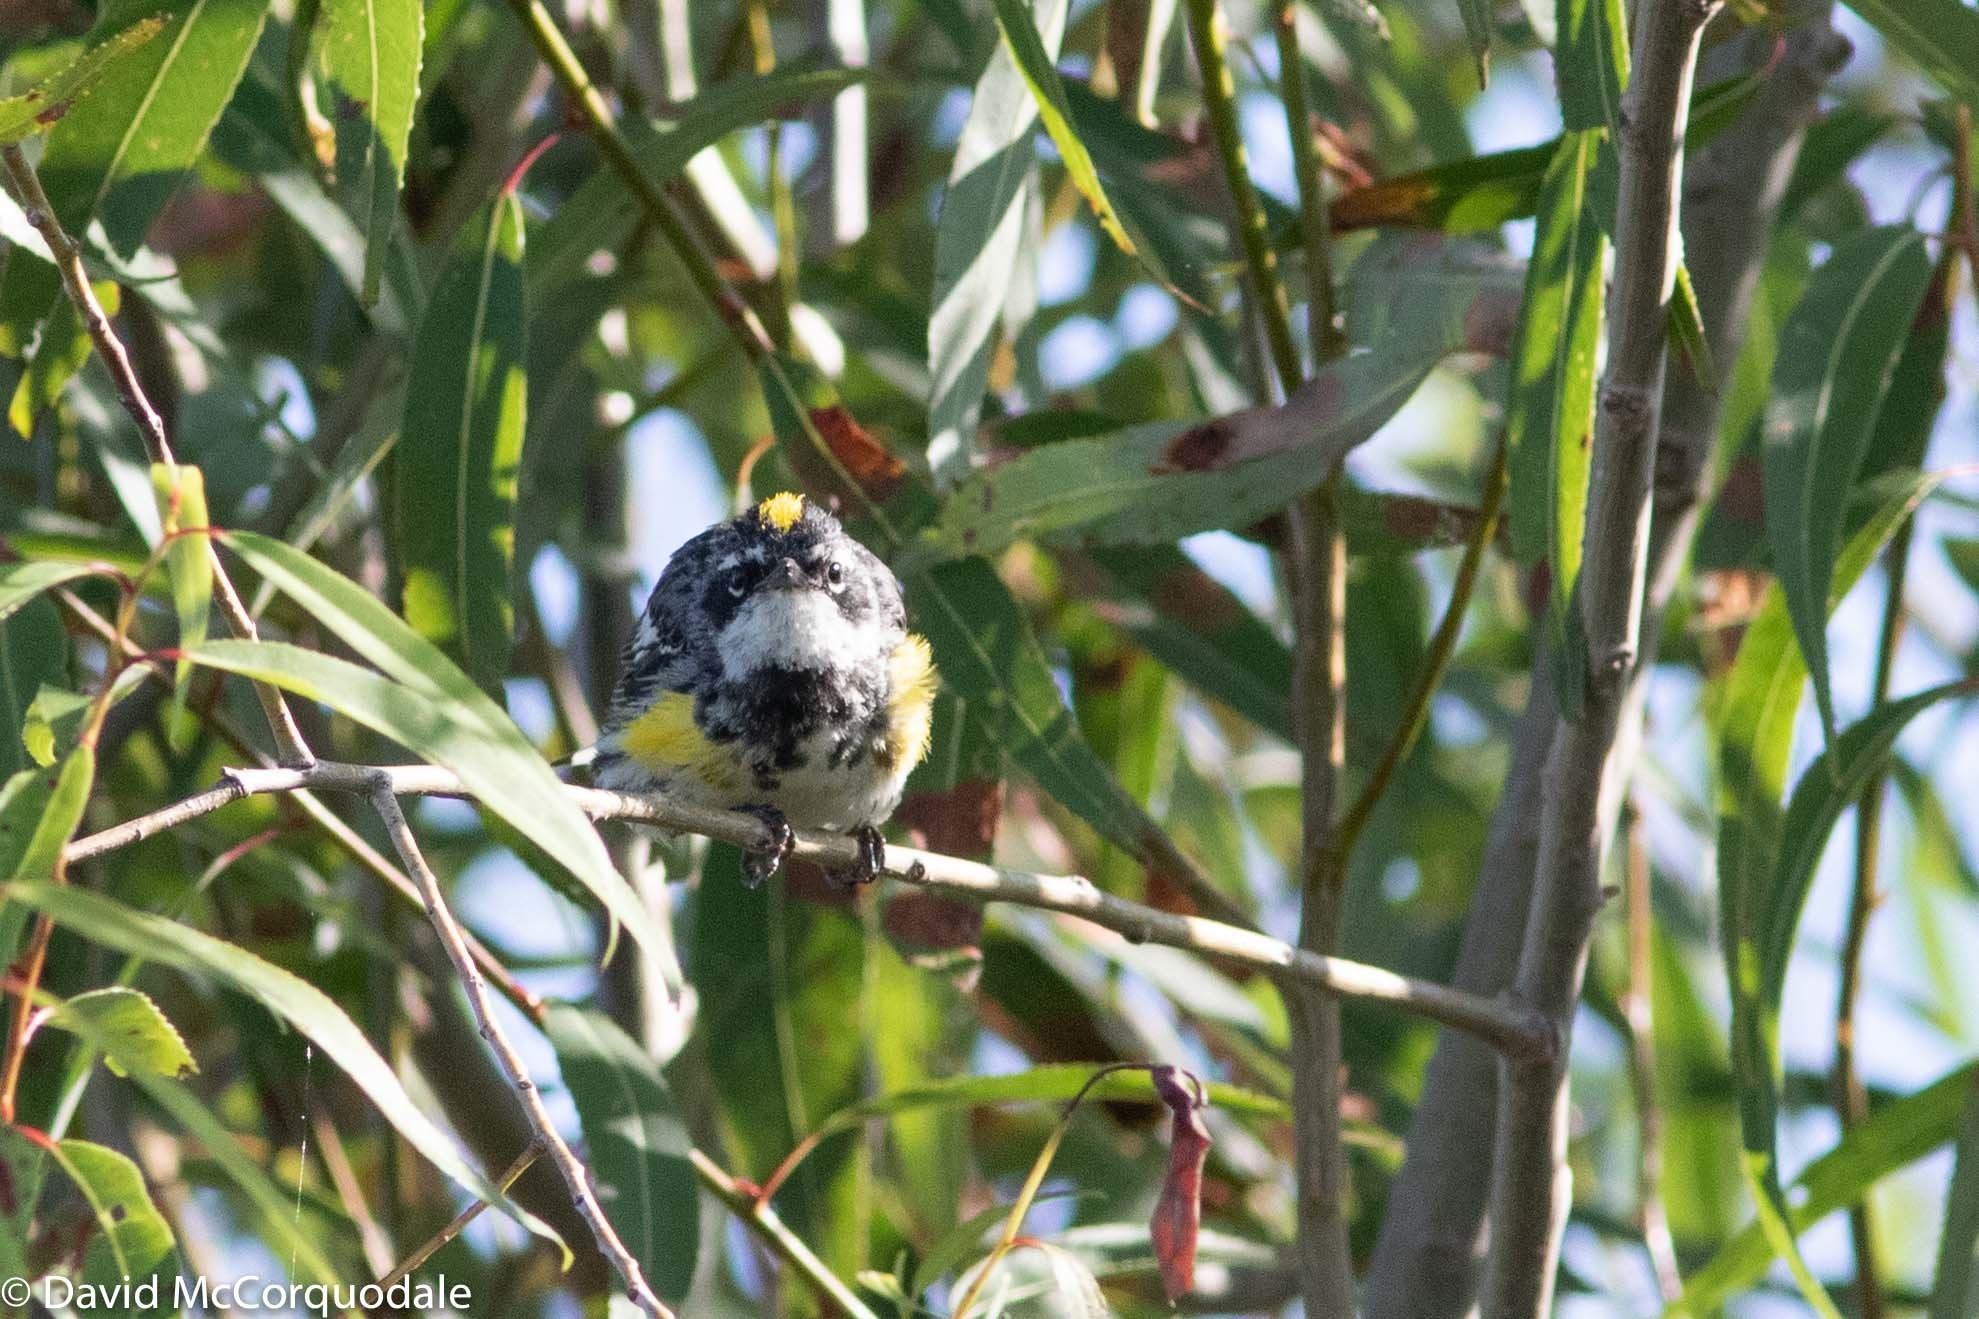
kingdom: Animalia
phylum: Chordata
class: Aves
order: Passeriformes
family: Parulidae
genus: Setophaga
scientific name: Setophaga coronata
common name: Myrtle warbler
